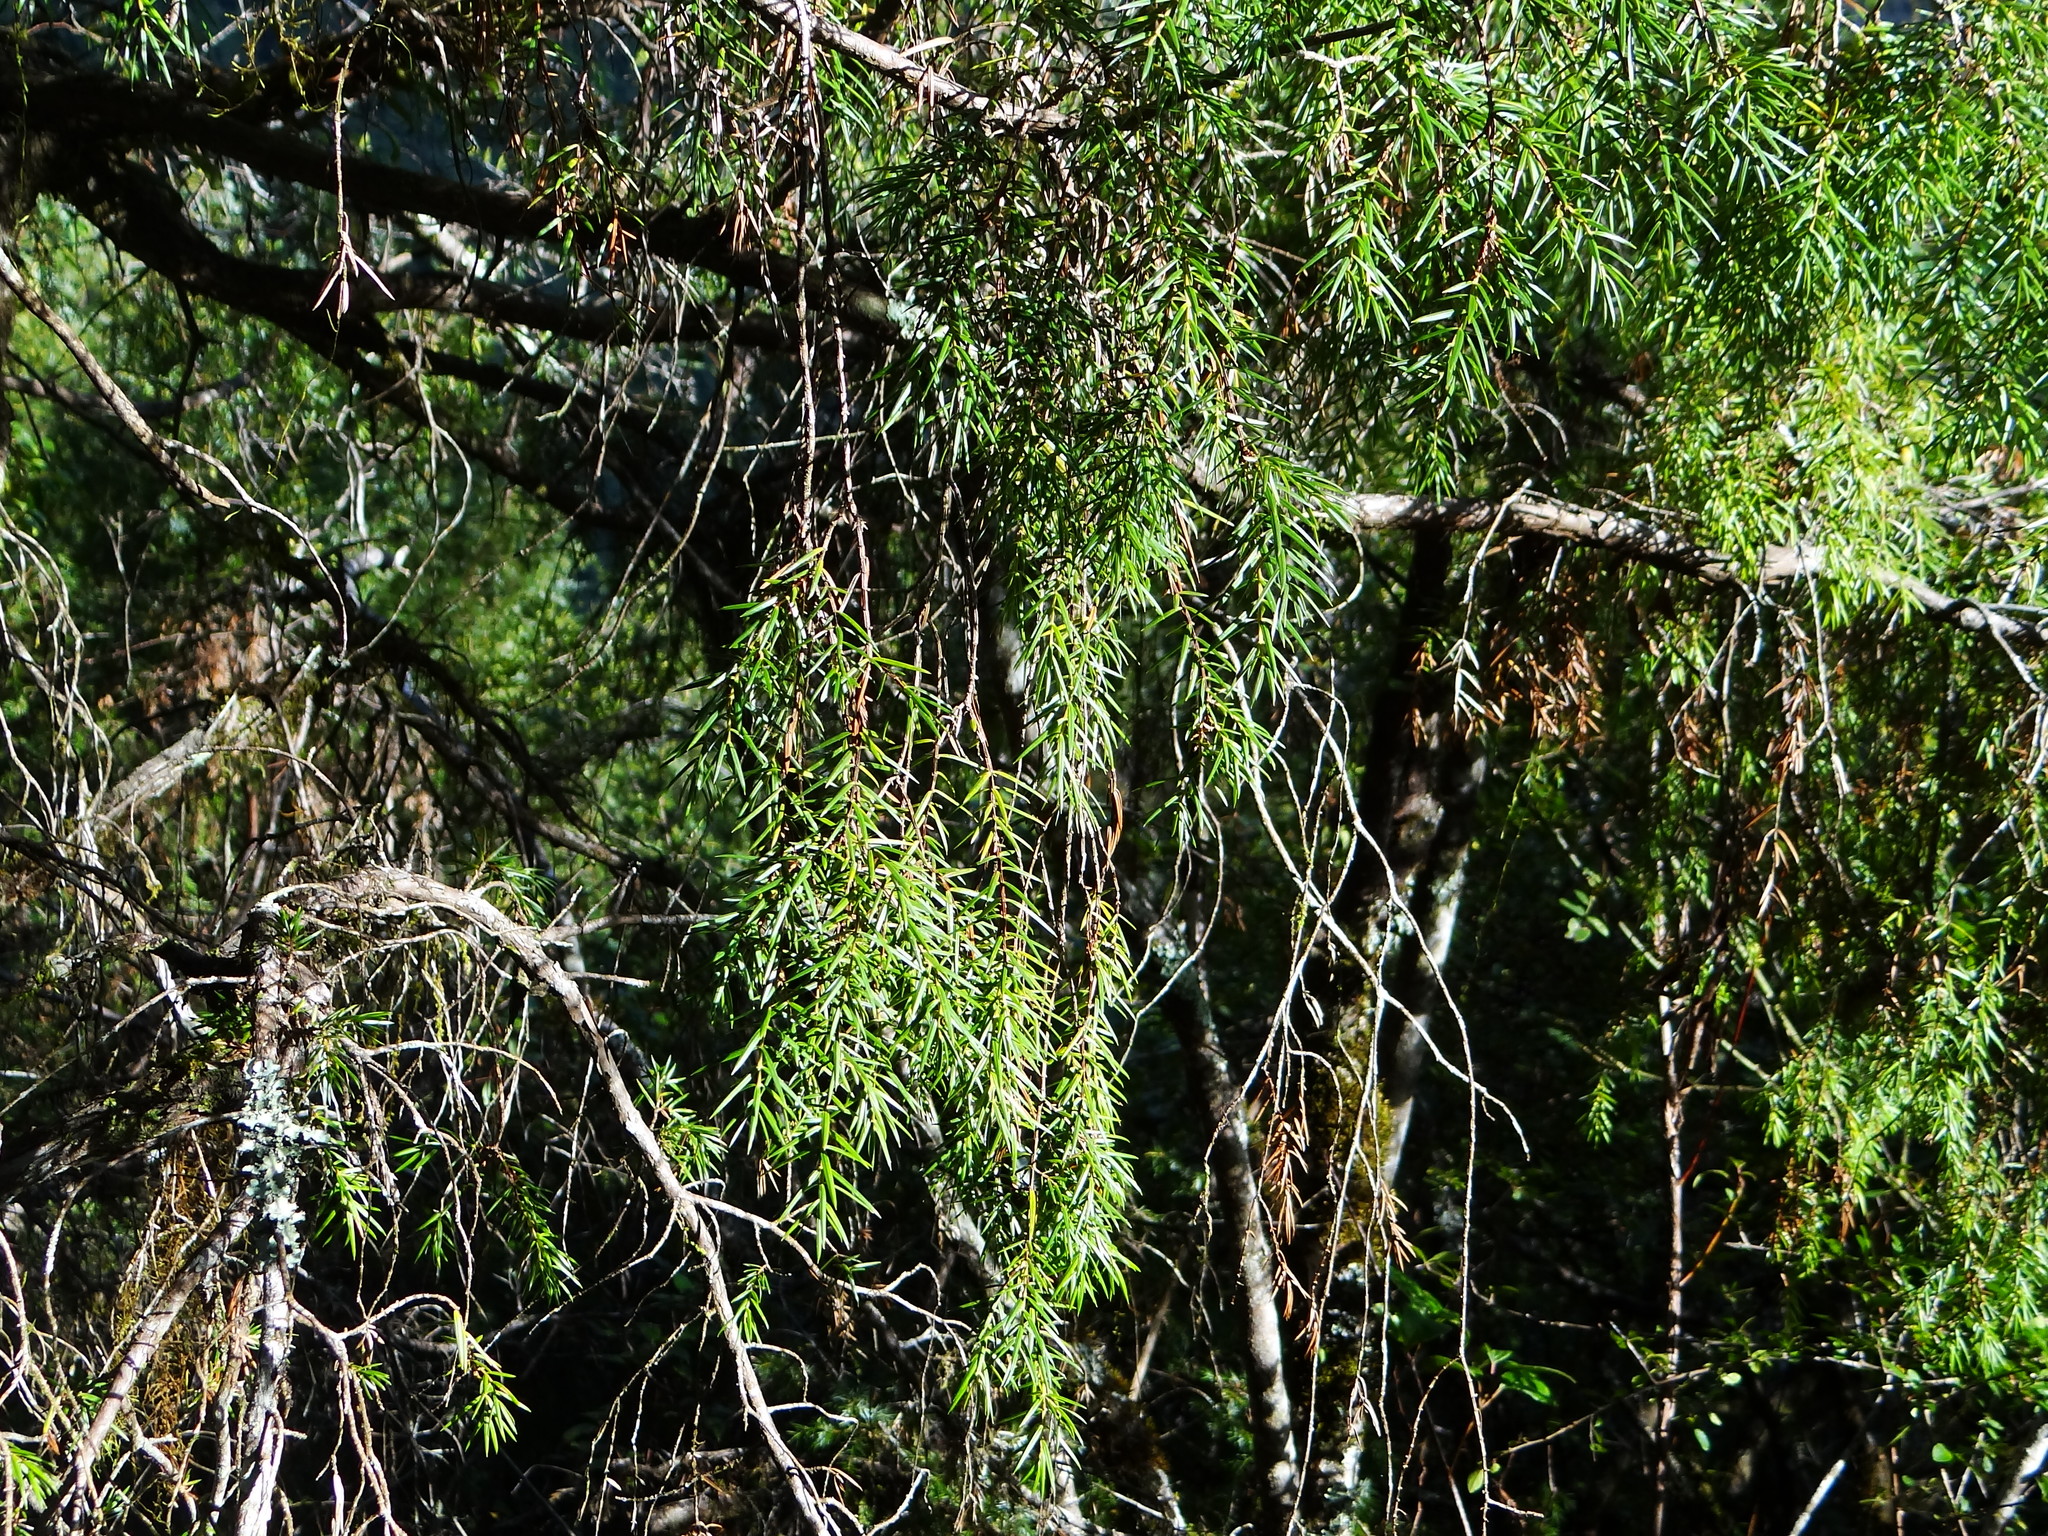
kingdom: Plantae
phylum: Tracheophyta
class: Pinopsida
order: Pinales
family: Cupressaceae
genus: Juniperus
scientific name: Juniperus formosana
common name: Formosan juniper
